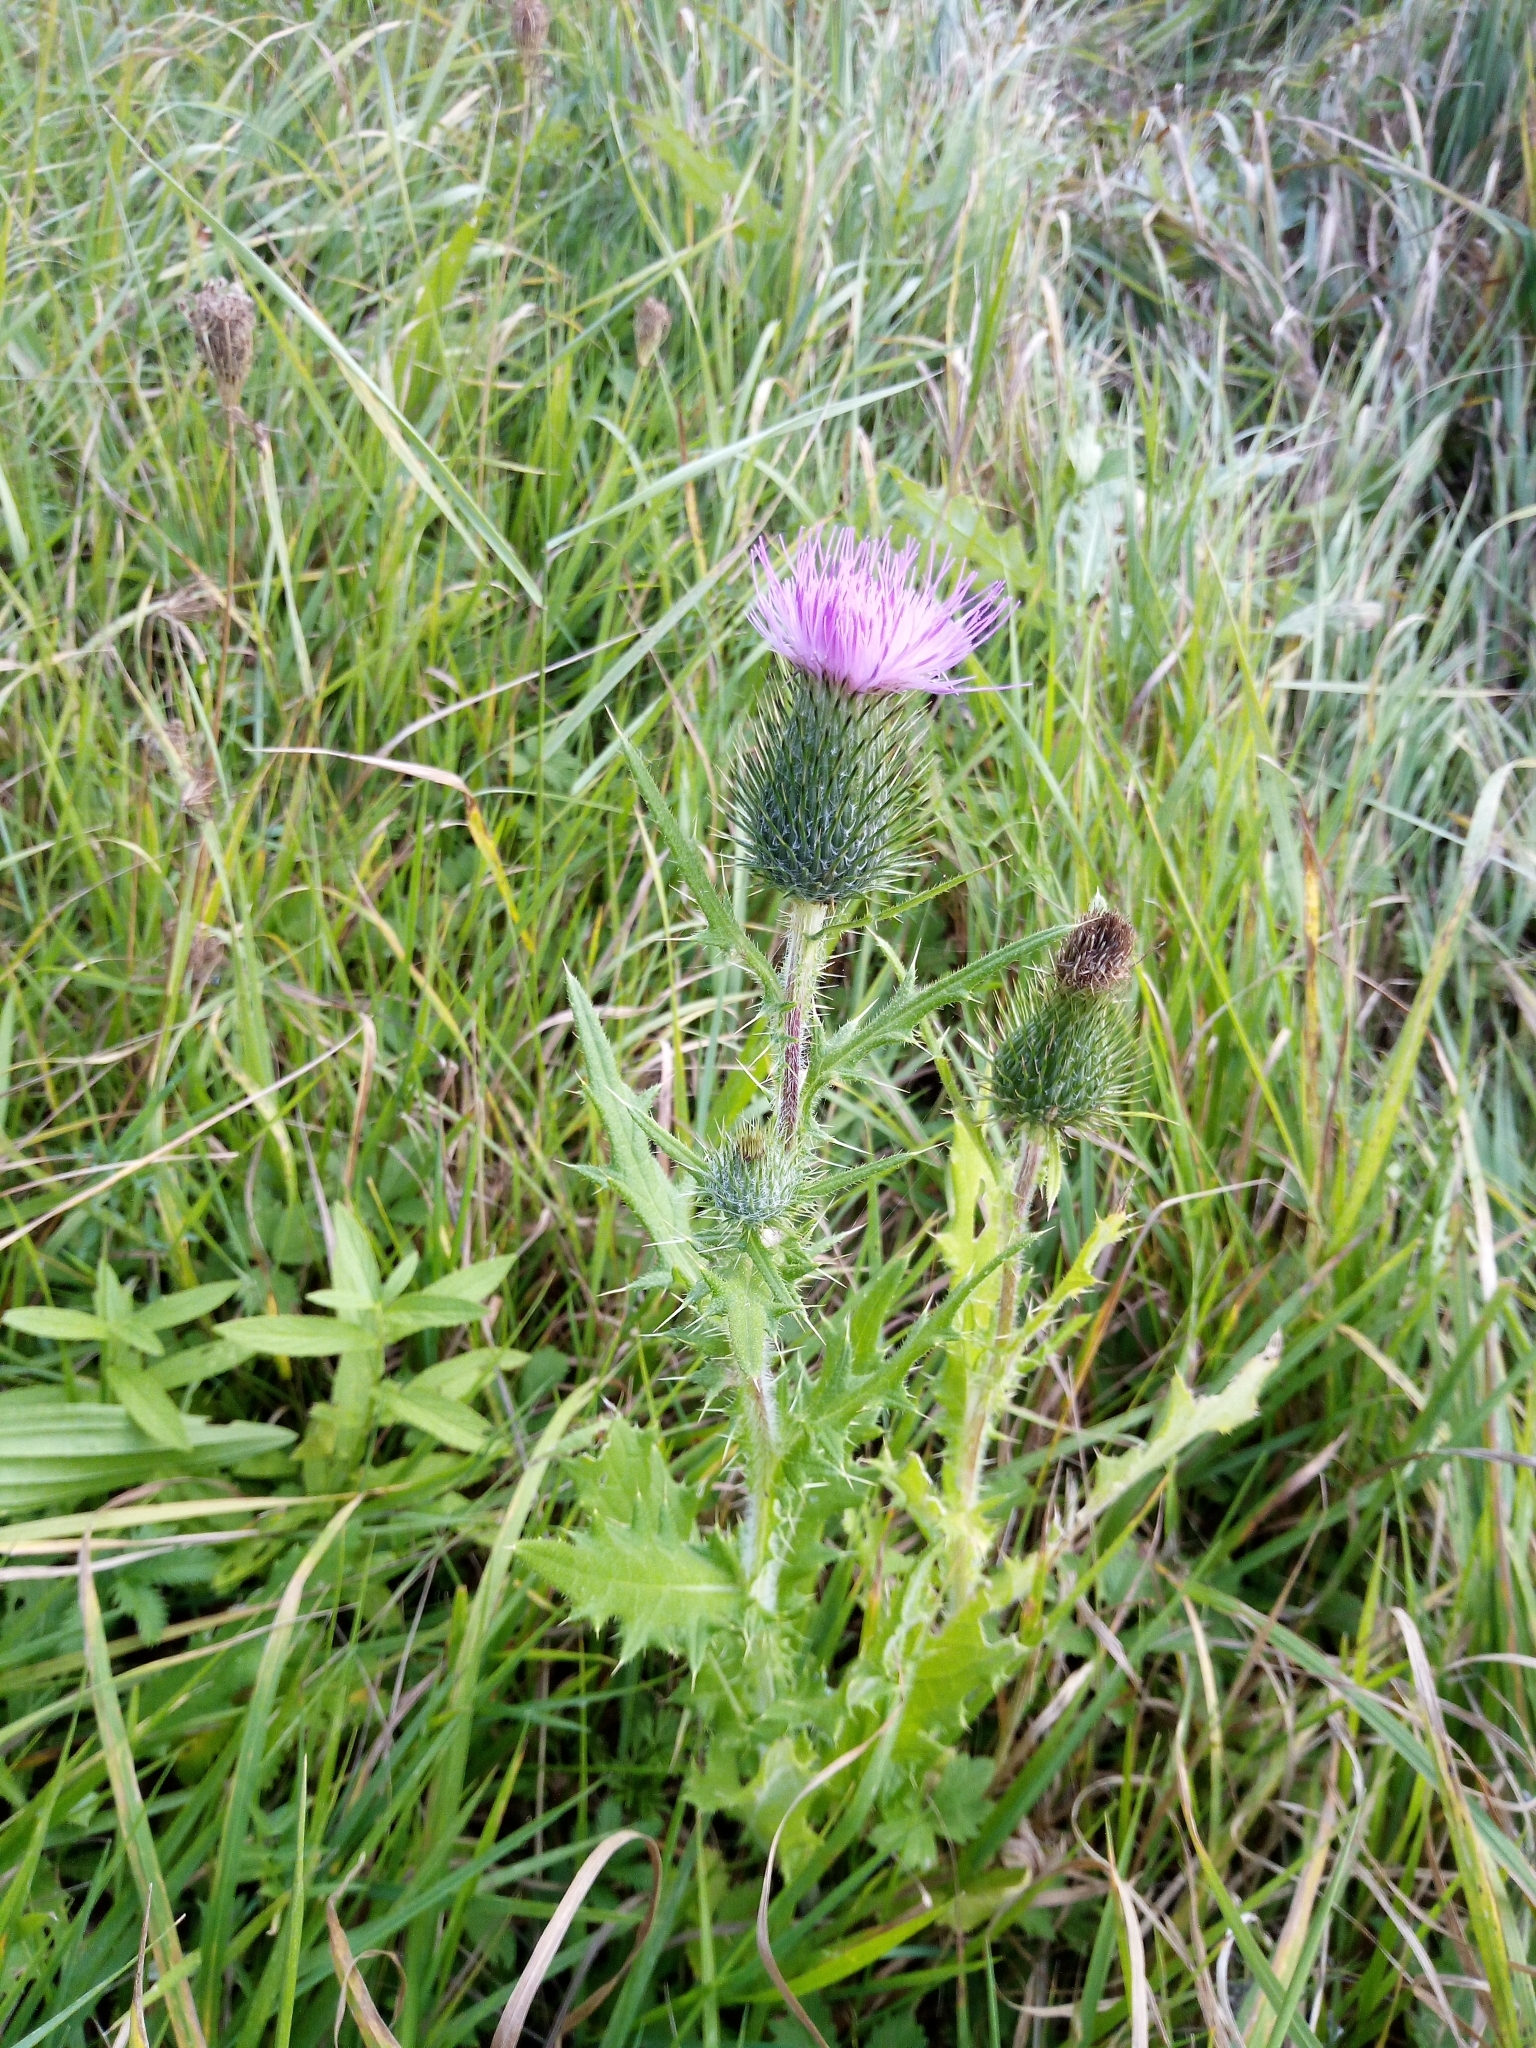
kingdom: Plantae
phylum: Tracheophyta
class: Magnoliopsida
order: Asterales
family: Asteraceae
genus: Cirsium
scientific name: Cirsium vulgare
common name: Bull thistle
